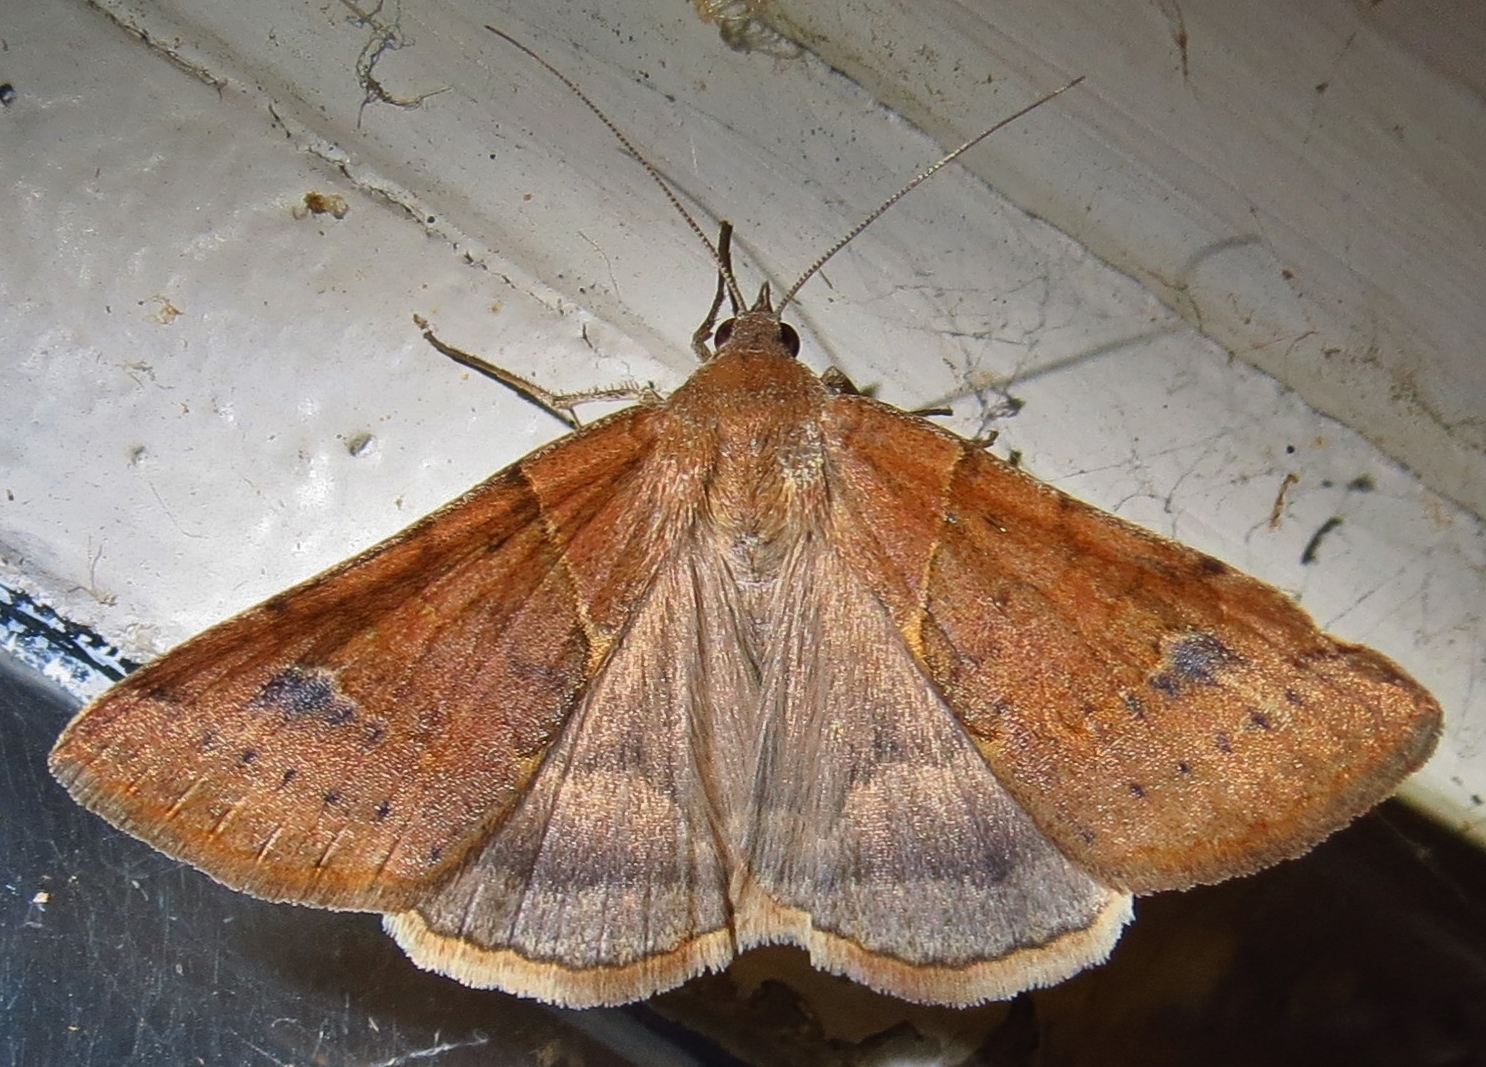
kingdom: Animalia
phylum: Arthropoda
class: Insecta
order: Lepidoptera
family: Erebidae
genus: Caenurgina
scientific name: Caenurgina erechtea
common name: Forage looper moth
